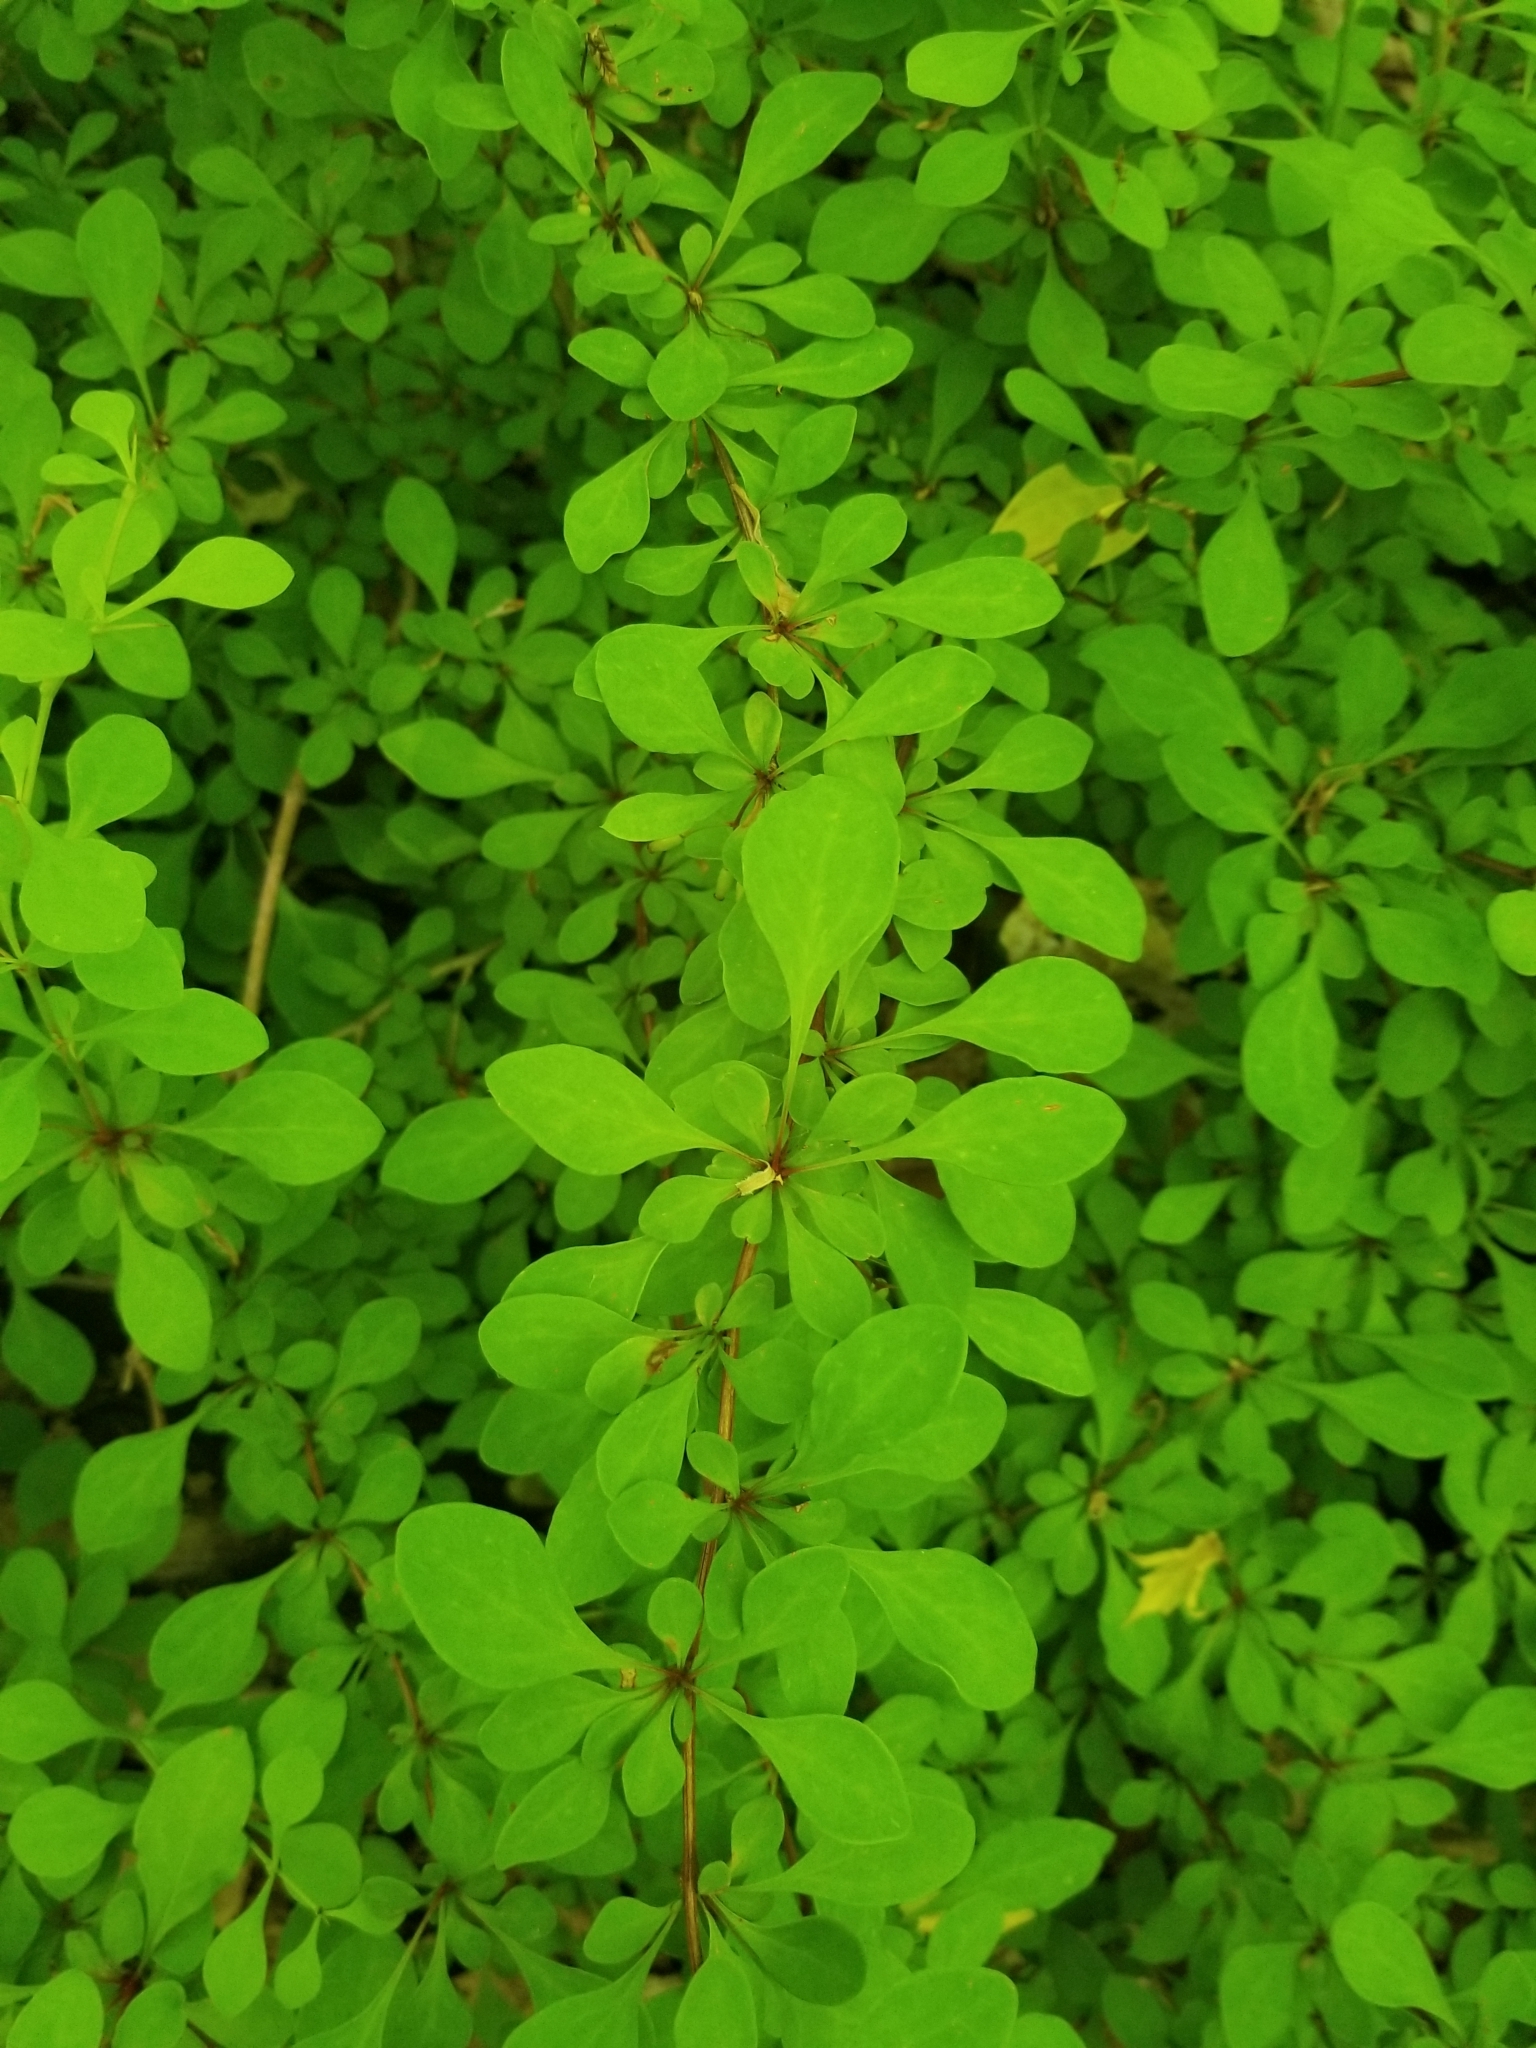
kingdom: Plantae
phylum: Tracheophyta
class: Magnoliopsida
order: Ranunculales
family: Berberidaceae
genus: Berberis
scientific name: Berberis thunbergii
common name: Japanese barberry
